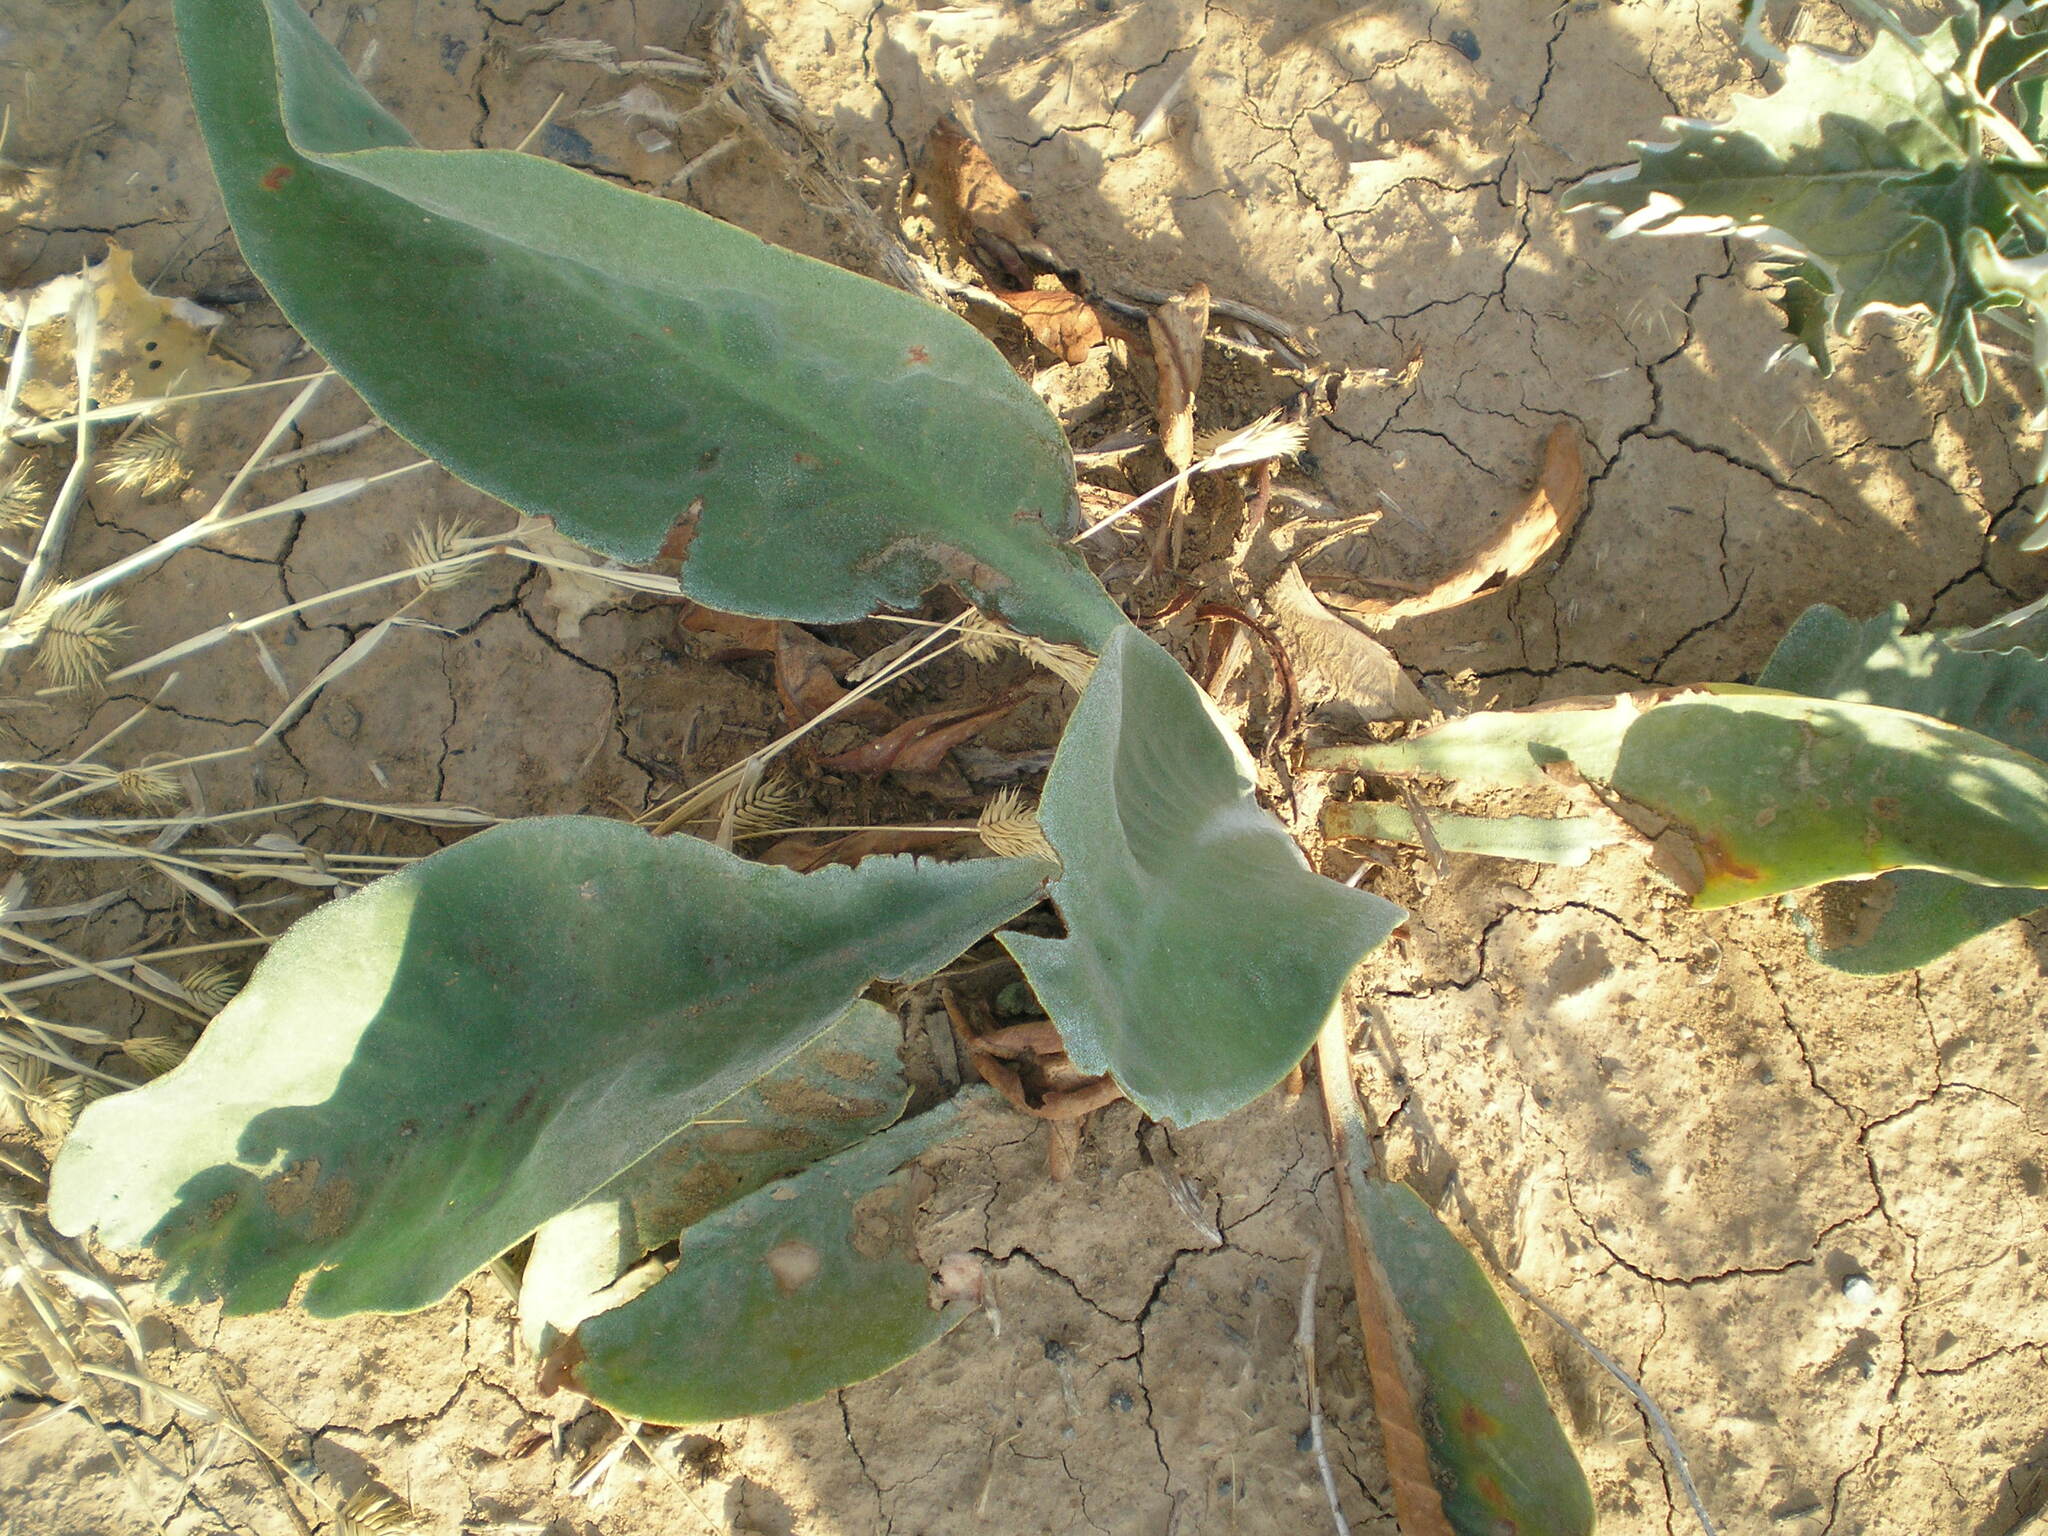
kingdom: Plantae
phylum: Tracheophyta
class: Magnoliopsida
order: Caryophyllales
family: Plumbaginaceae
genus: Limonium
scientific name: Limonium gmelini
